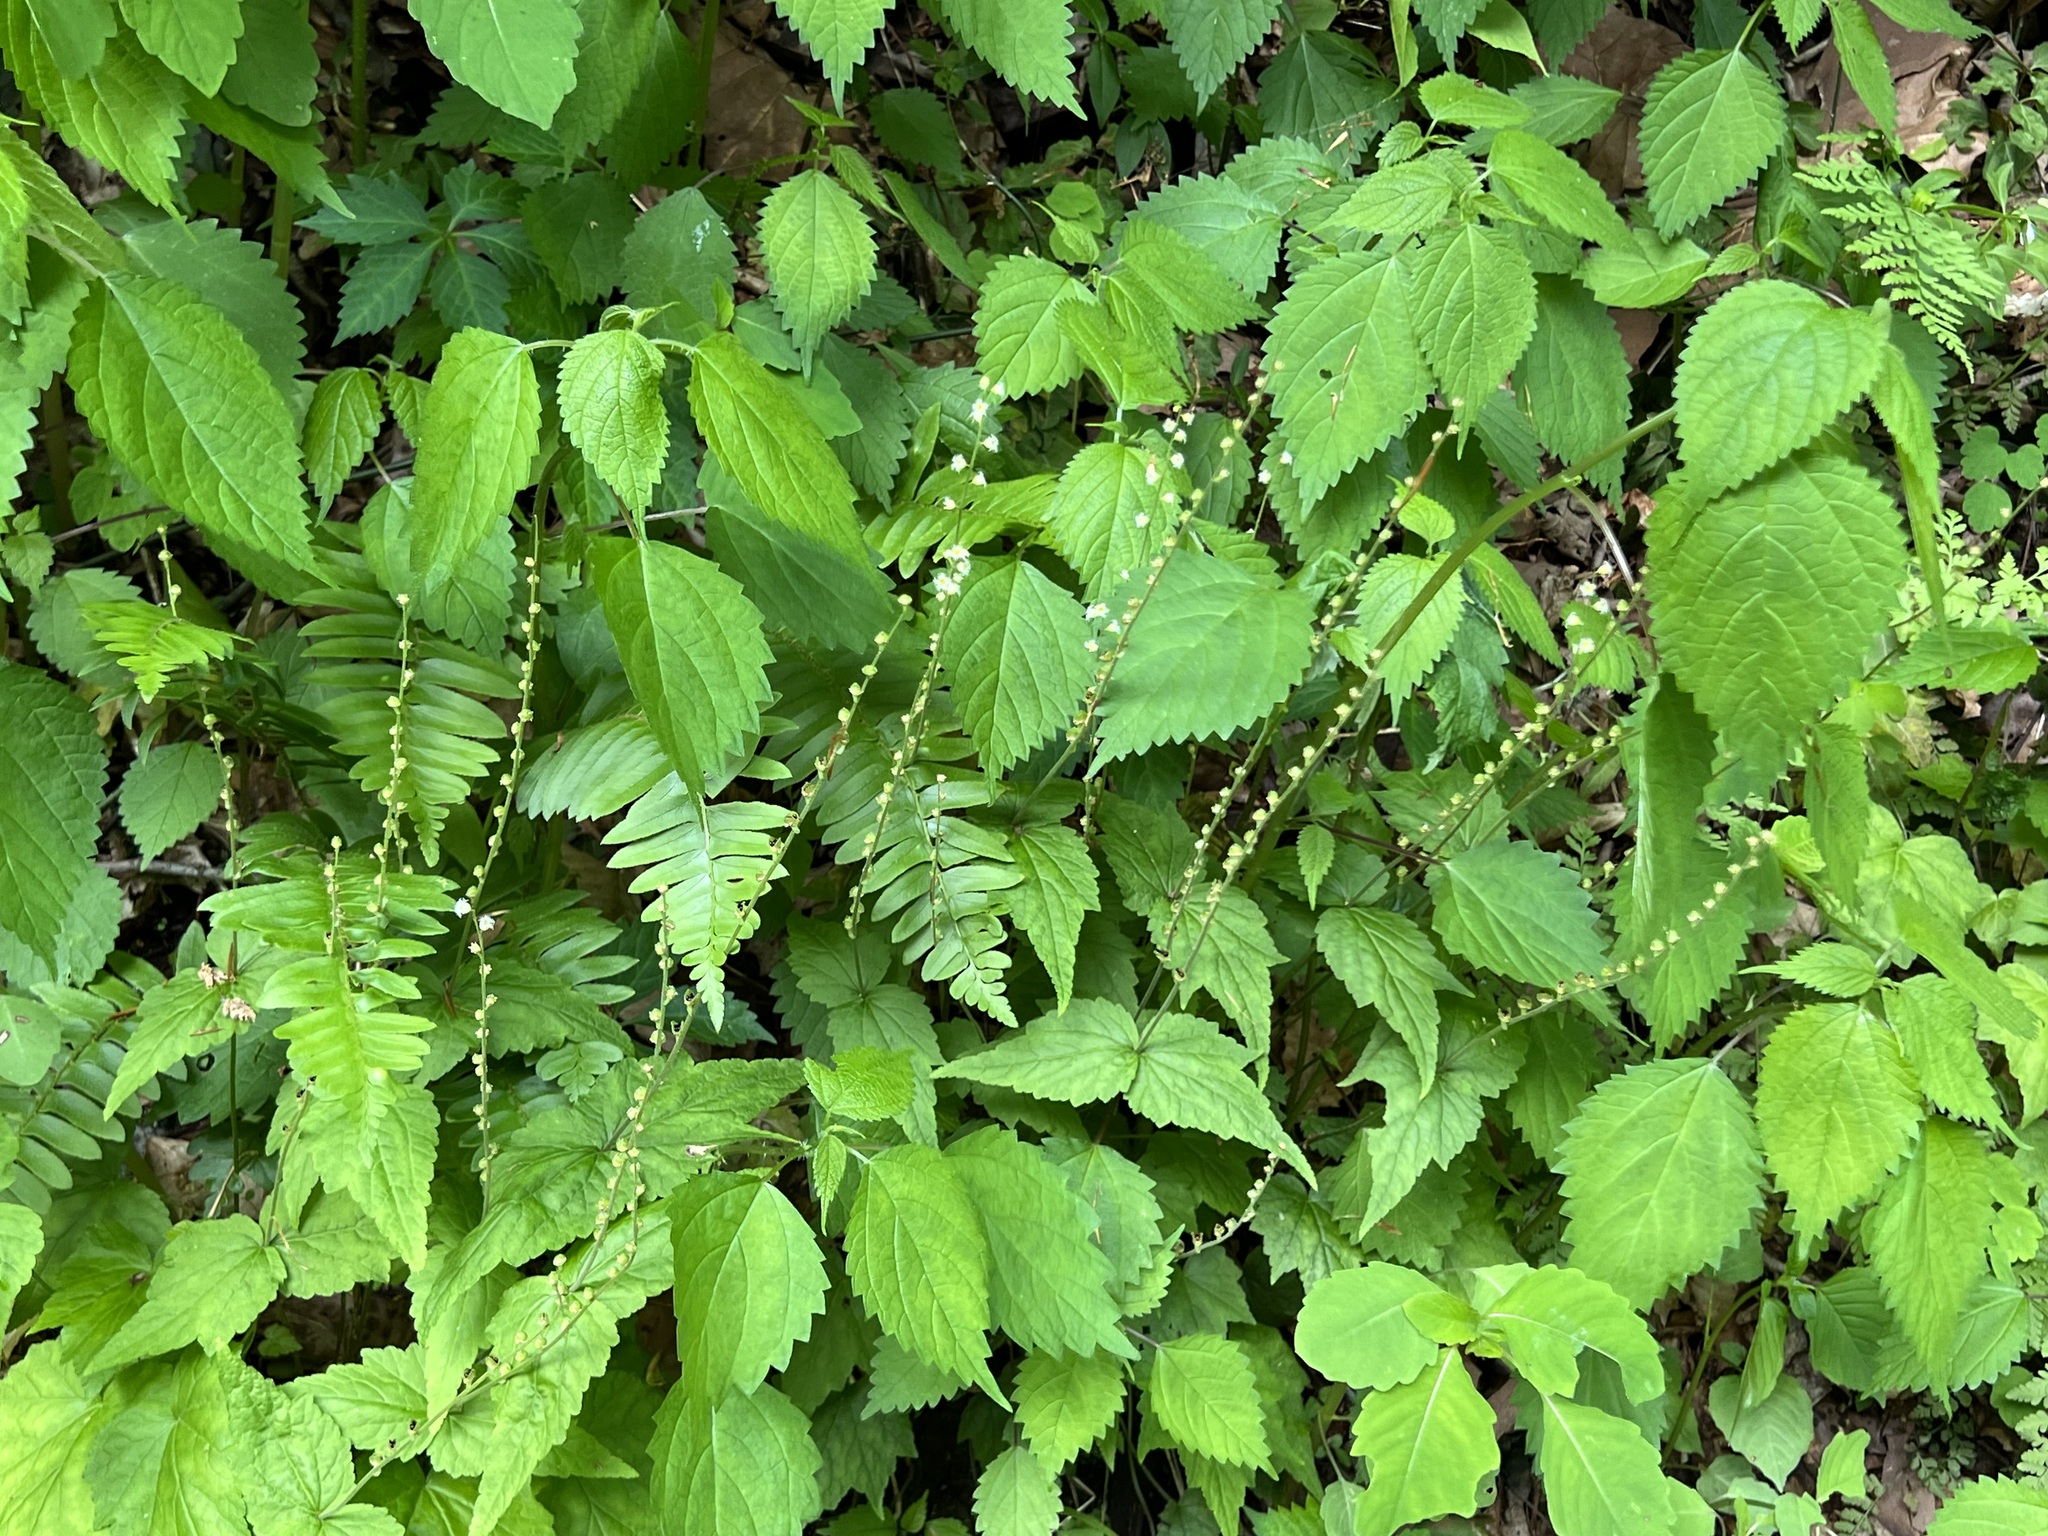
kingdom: Plantae
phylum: Tracheophyta
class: Magnoliopsida
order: Saxifragales
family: Saxifragaceae
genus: Mitella
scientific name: Mitella diphylla
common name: Coolwort
